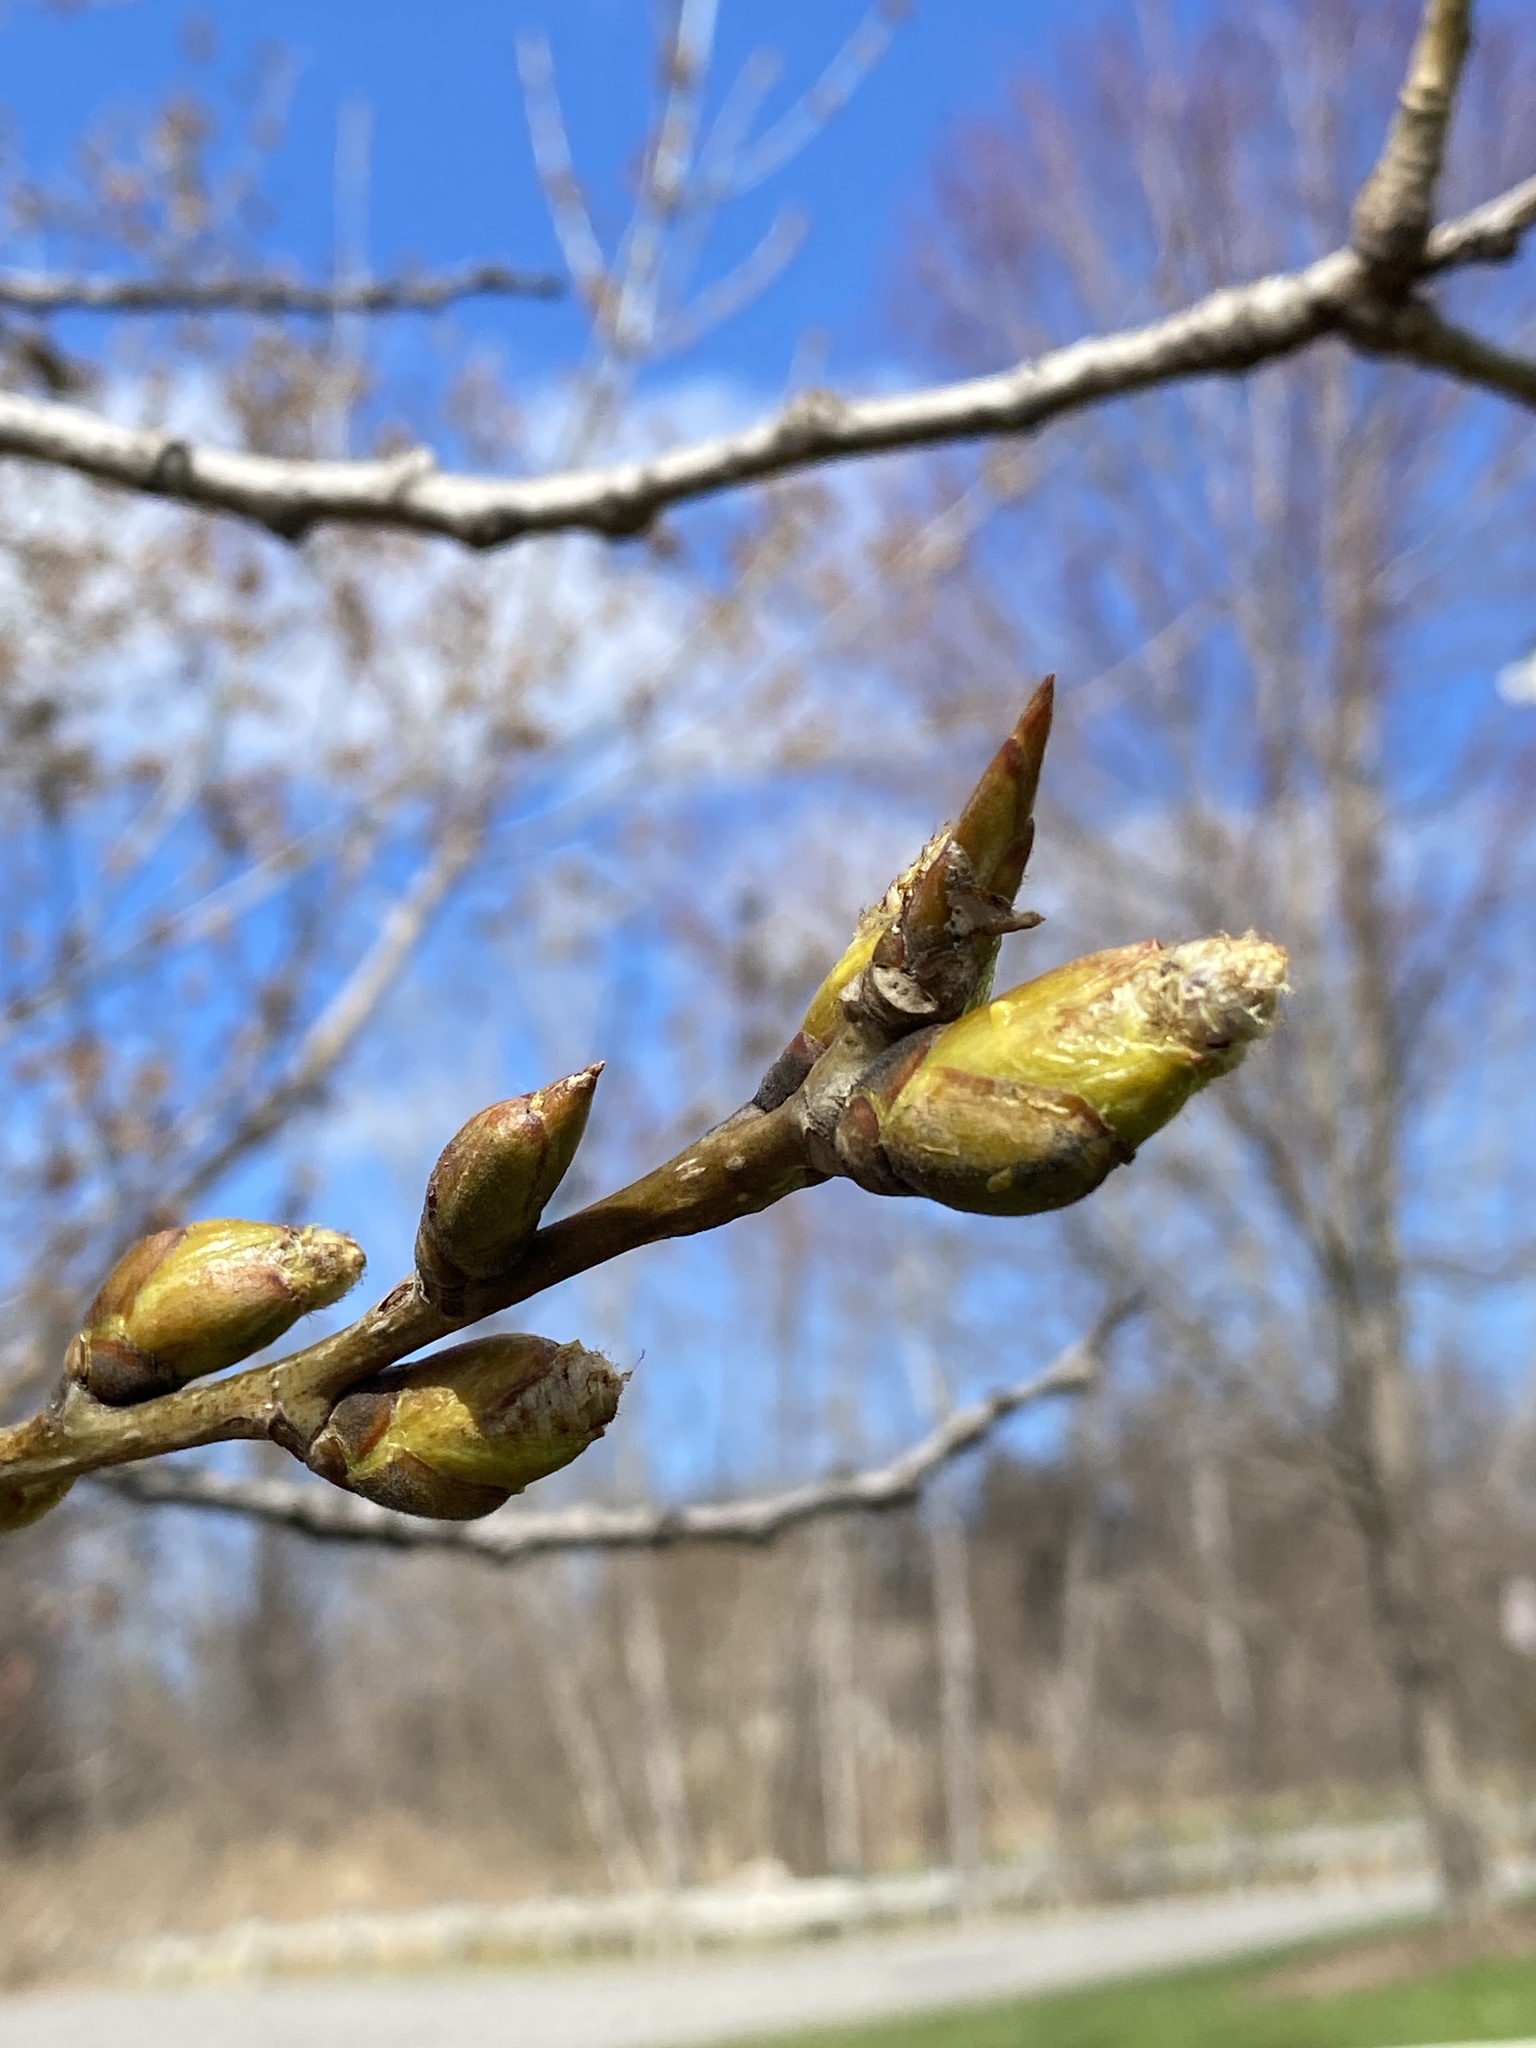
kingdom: Plantae
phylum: Tracheophyta
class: Magnoliopsida
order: Malpighiales
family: Salicaceae
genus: Populus
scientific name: Populus deltoides
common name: Eastern cottonwood
